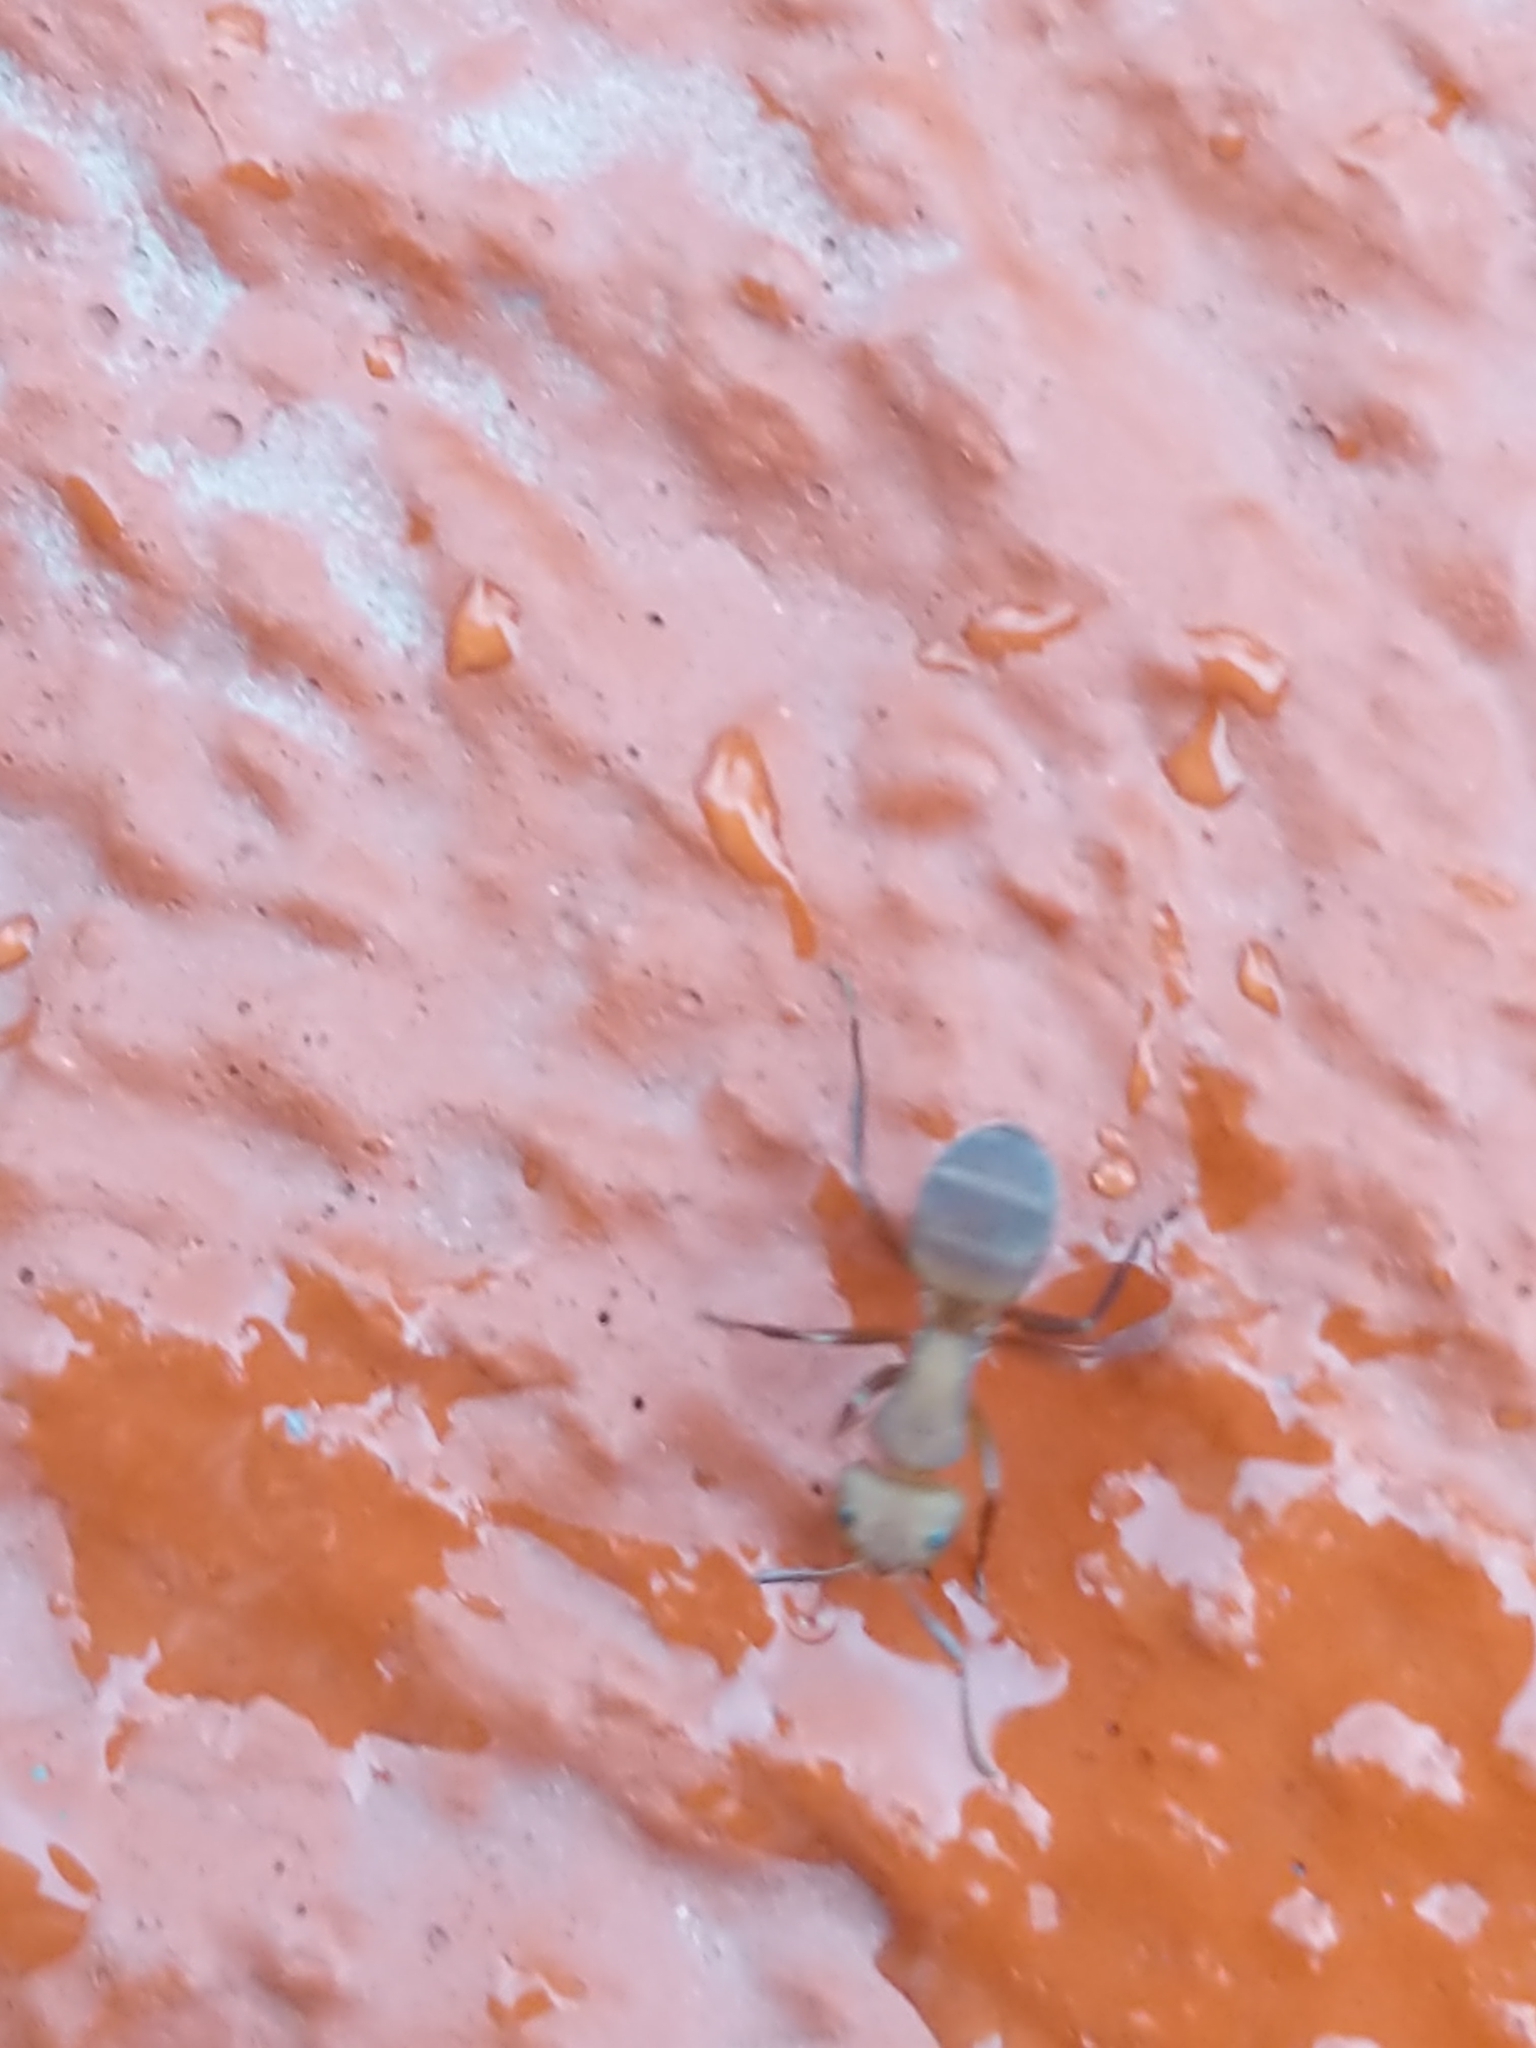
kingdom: Animalia
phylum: Arthropoda
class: Insecta
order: Hymenoptera
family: Formicidae
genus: Camponotus
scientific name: Camponotus rectangularis
